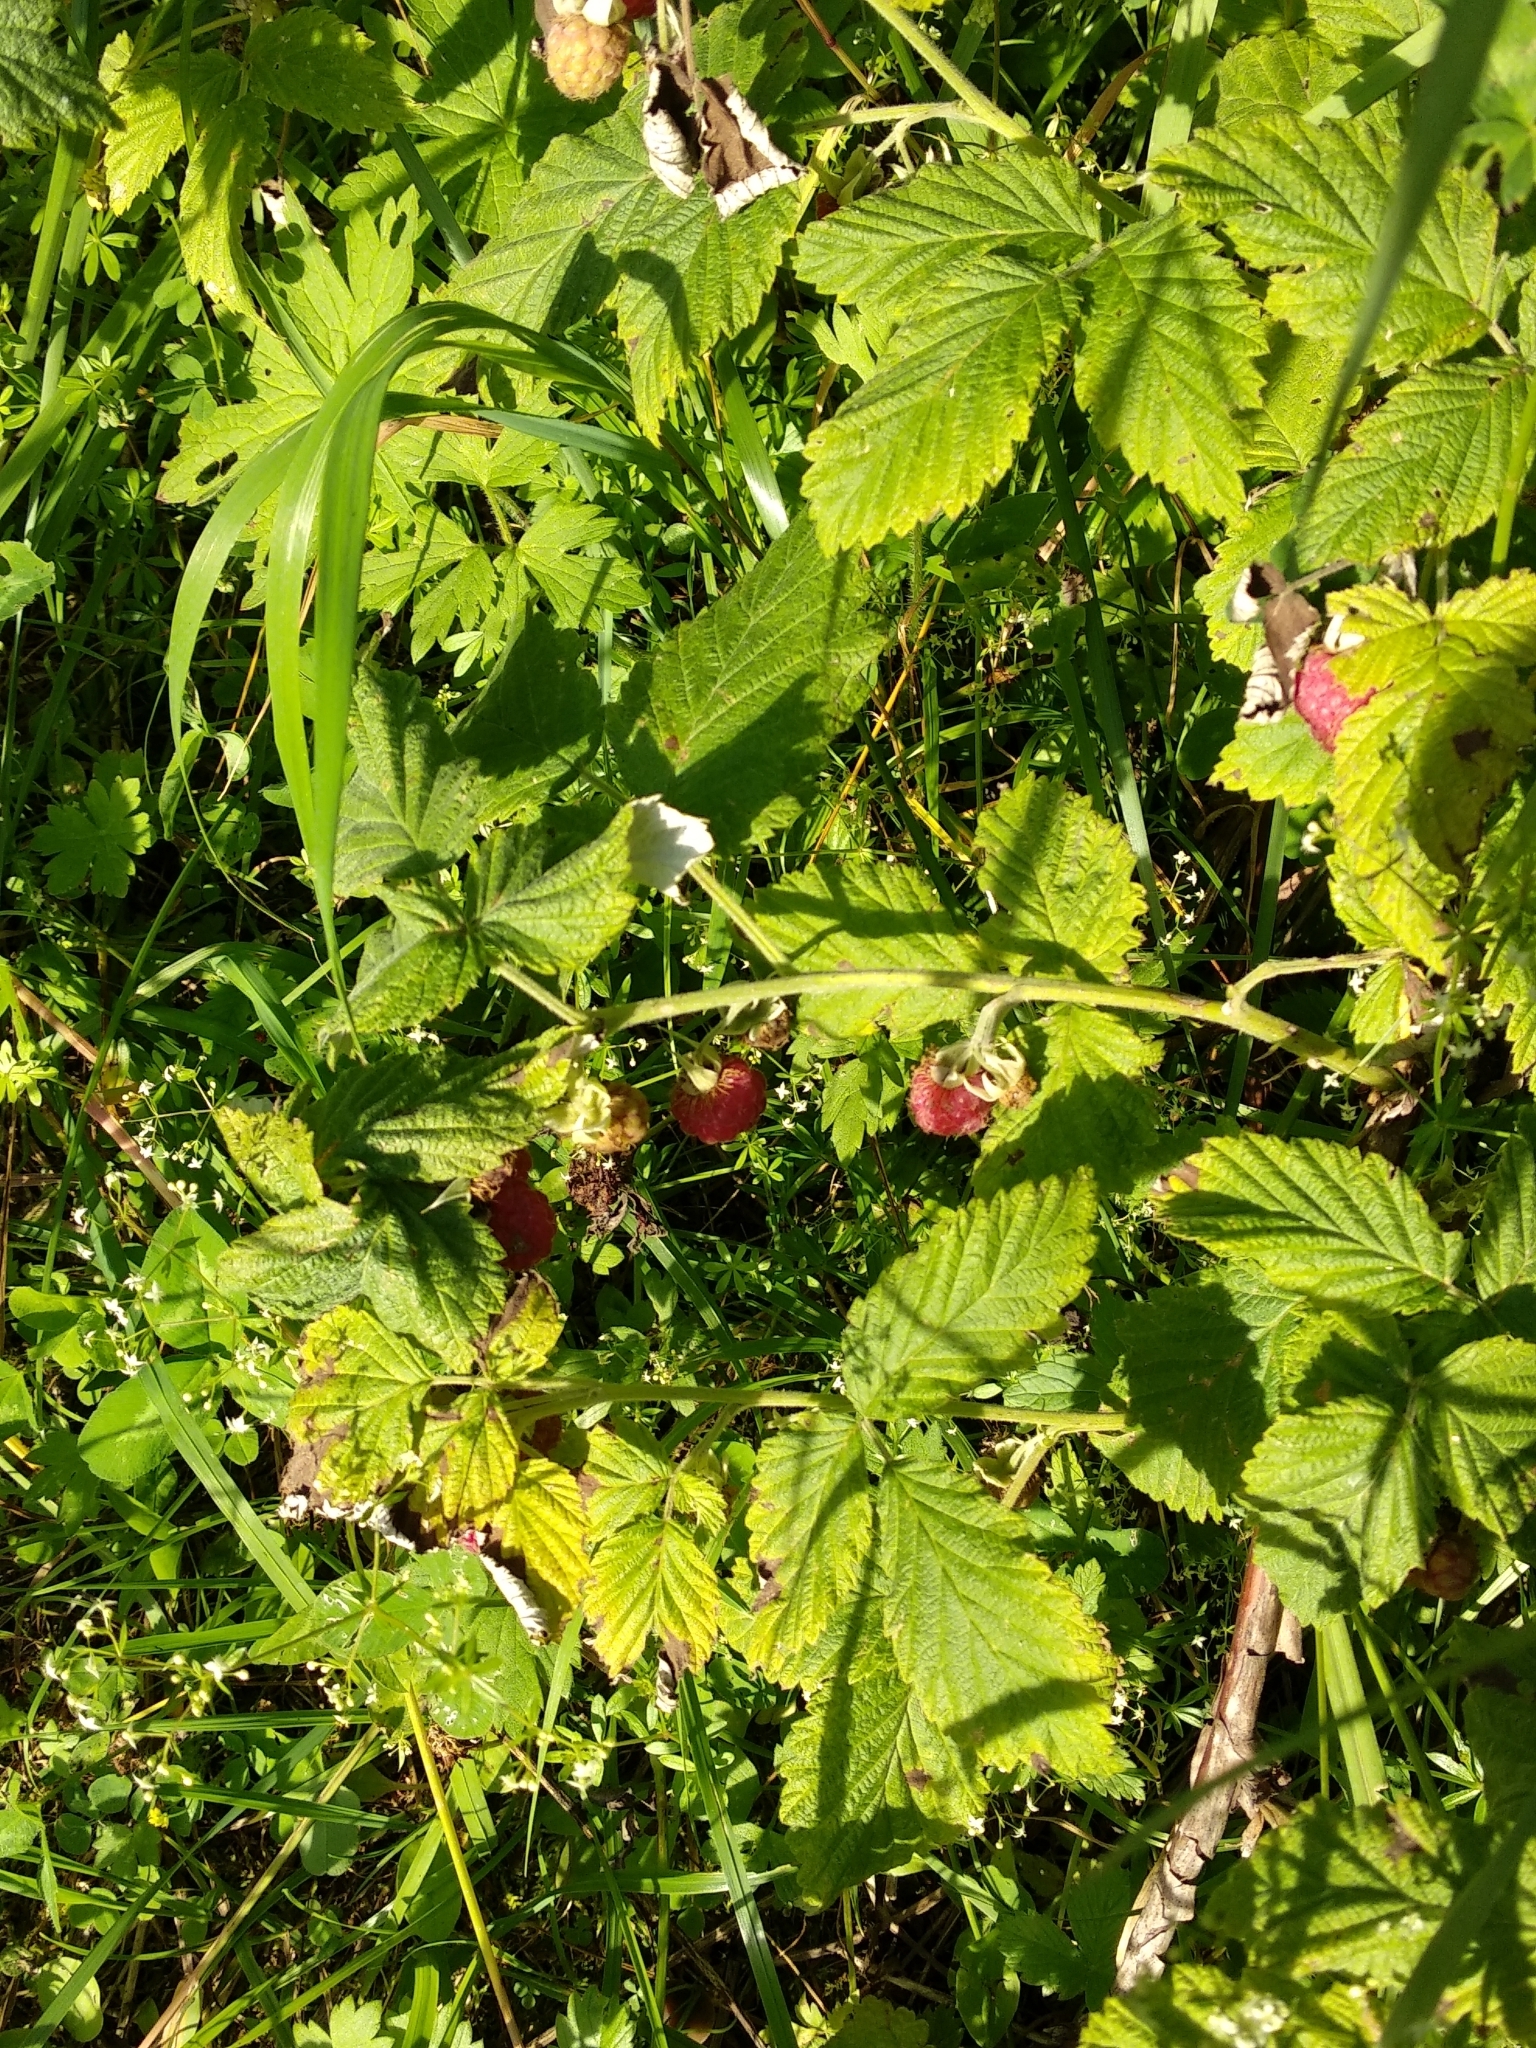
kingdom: Plantae
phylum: Tracheophyta
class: Magnoliopsida
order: Rosales
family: Rosaceae
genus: Rubus
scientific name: Rubus idaeus
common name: Raspberry
